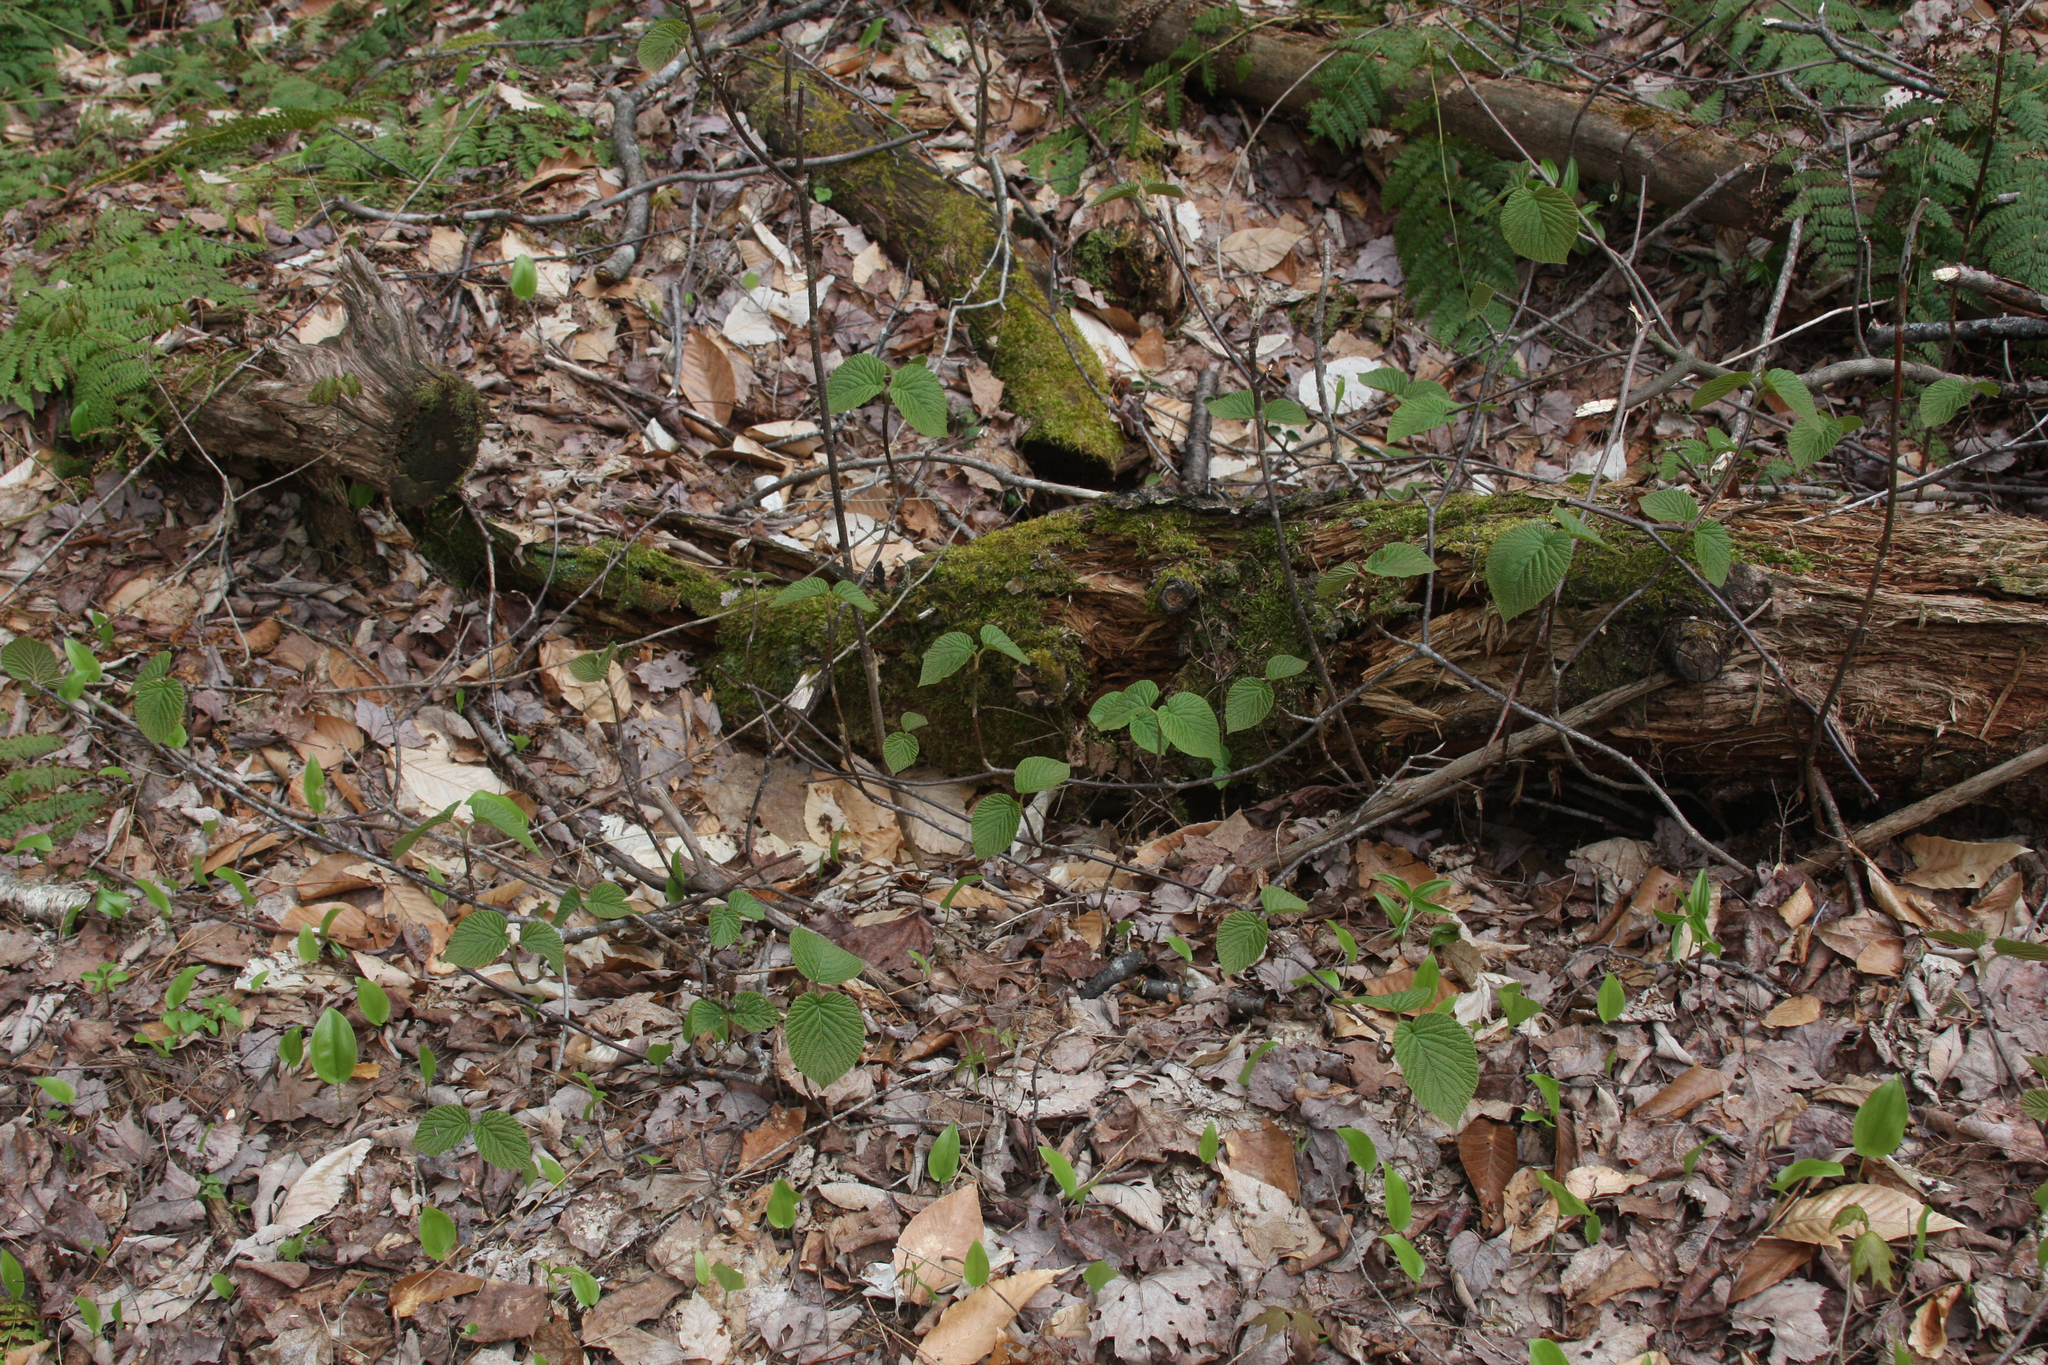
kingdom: Plantae
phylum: Tracheophyta
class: Magnoliopsida
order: Dipsacales
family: Viburnaceae
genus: Viburnum
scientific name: Viburnum lantanoides
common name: Hobblebush
